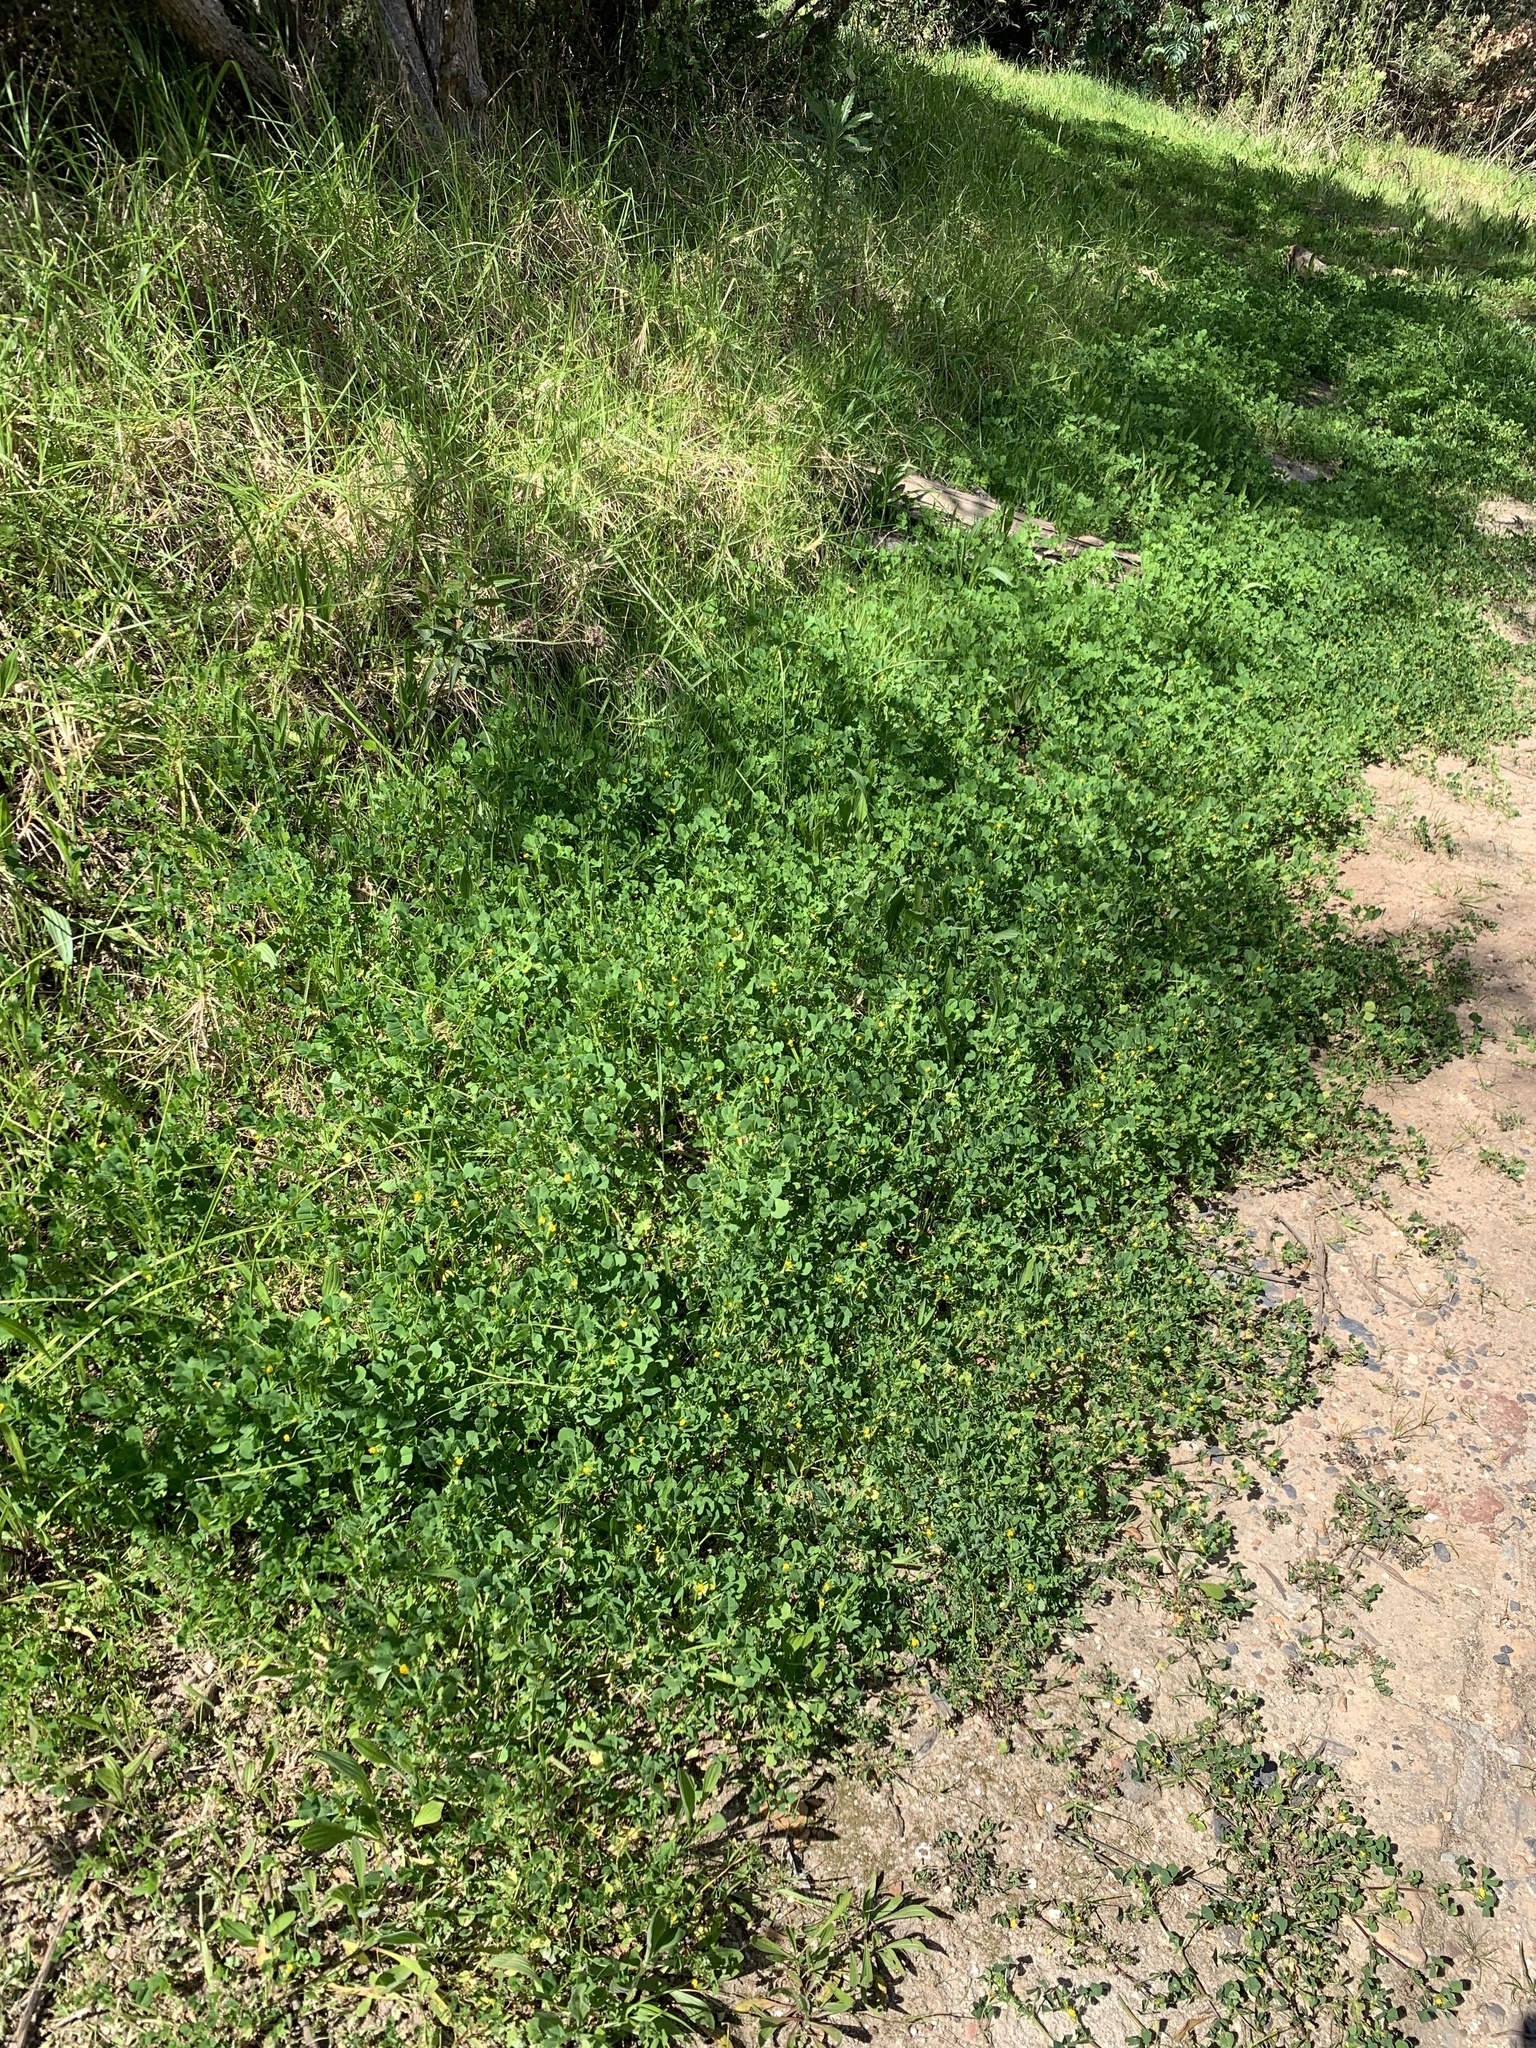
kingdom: Plantae
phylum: Tracheophyta
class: Magnoliopsida
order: Fabales
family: Fabaceae
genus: Medicago
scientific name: Medicago polymorpha
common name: Burclover
